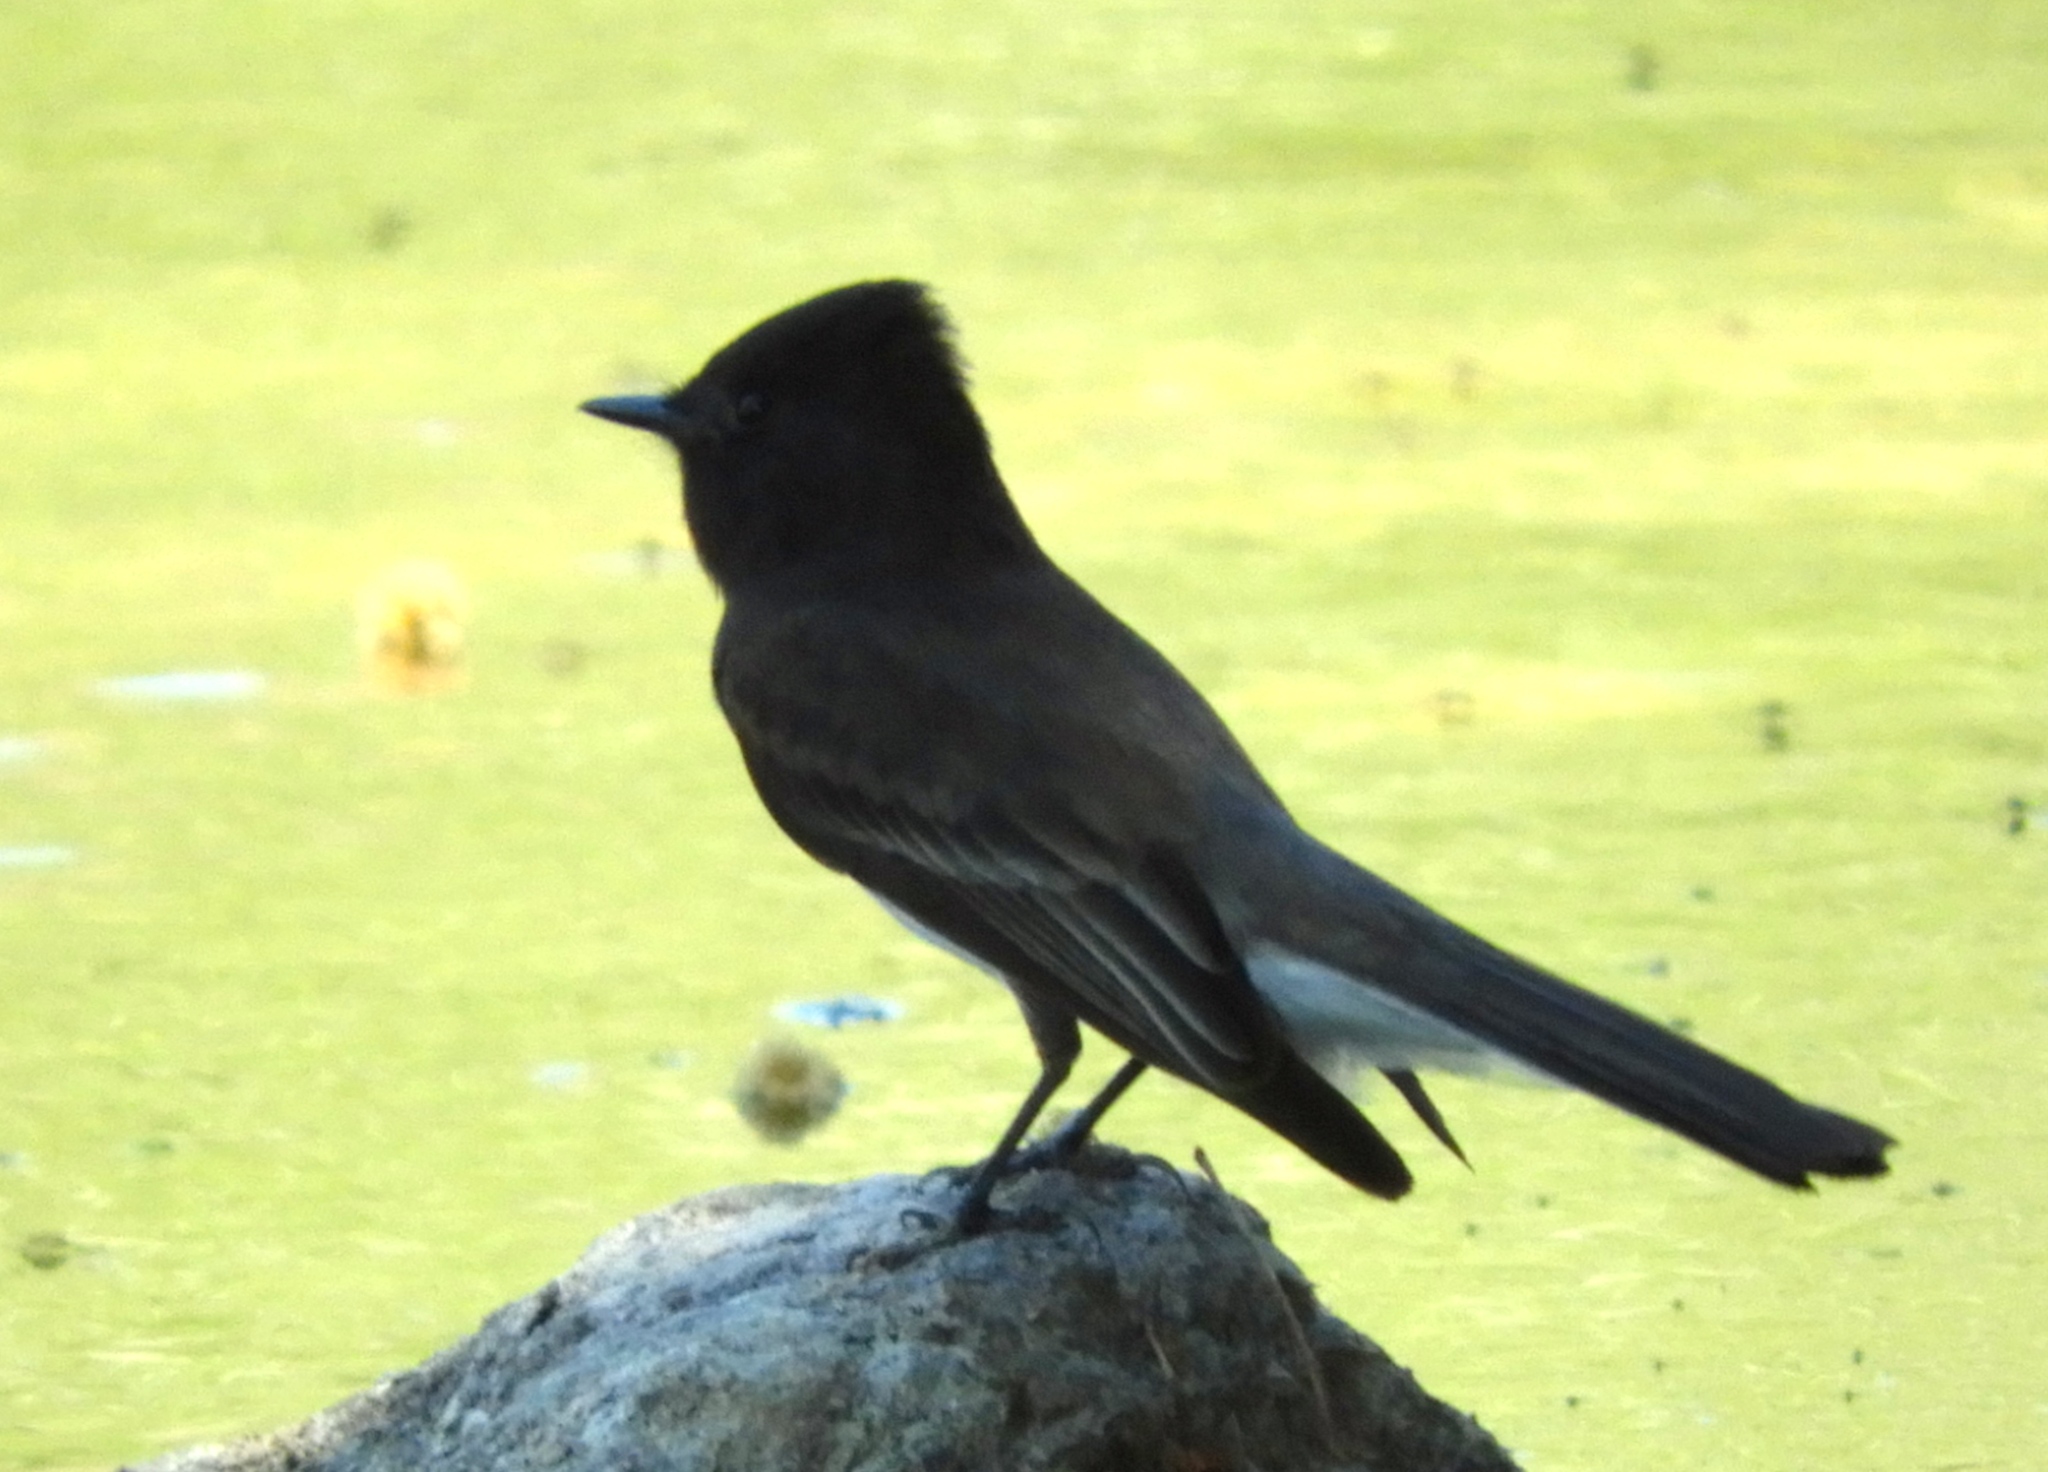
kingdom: Animalia
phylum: Chordata
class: Aves
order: Passeriformes
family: Tyrannidae
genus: Sayornis
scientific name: Sayornis nigricans
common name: Black phoebe
